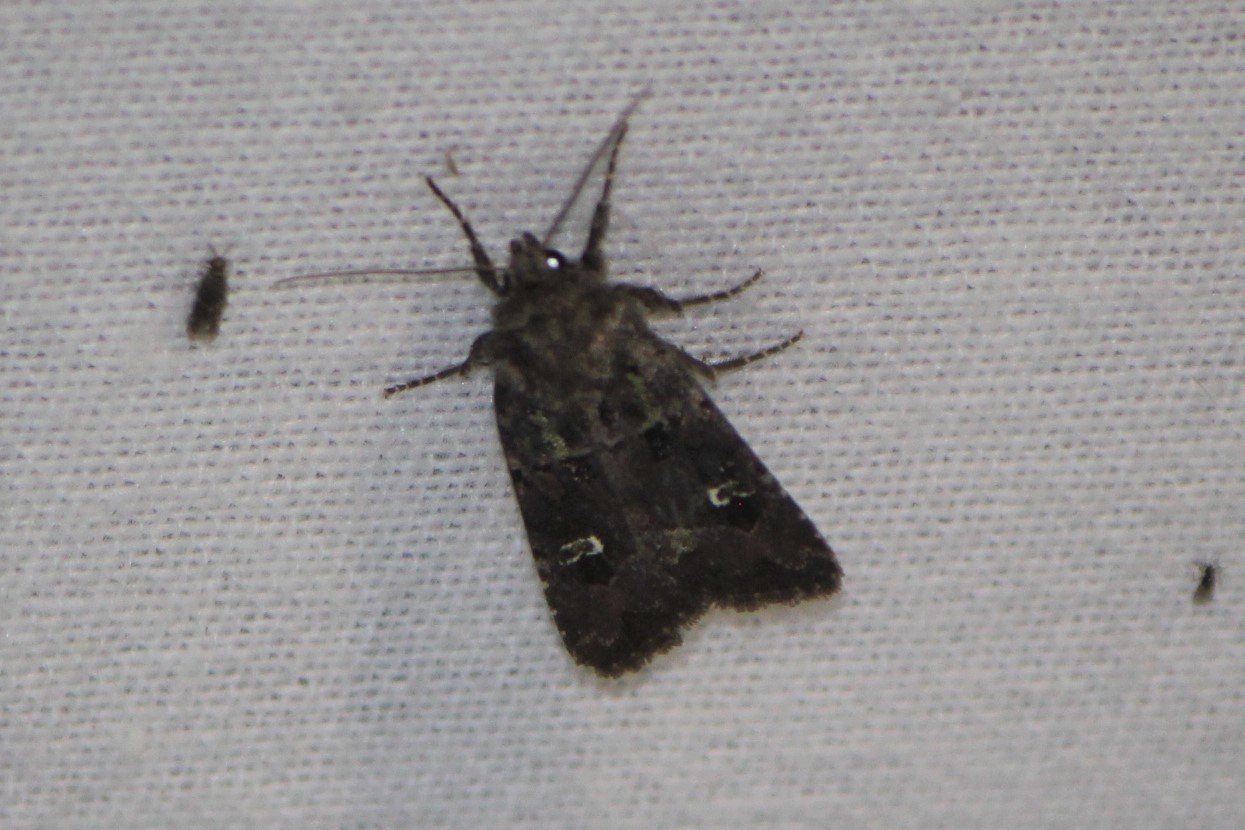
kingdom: Animalia
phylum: Arthropoda
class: Insecta
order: Lepidoptera
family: Noctuidae
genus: Lacinipolia
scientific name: Lacinipolia renigera
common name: Kidney-spotted minor
